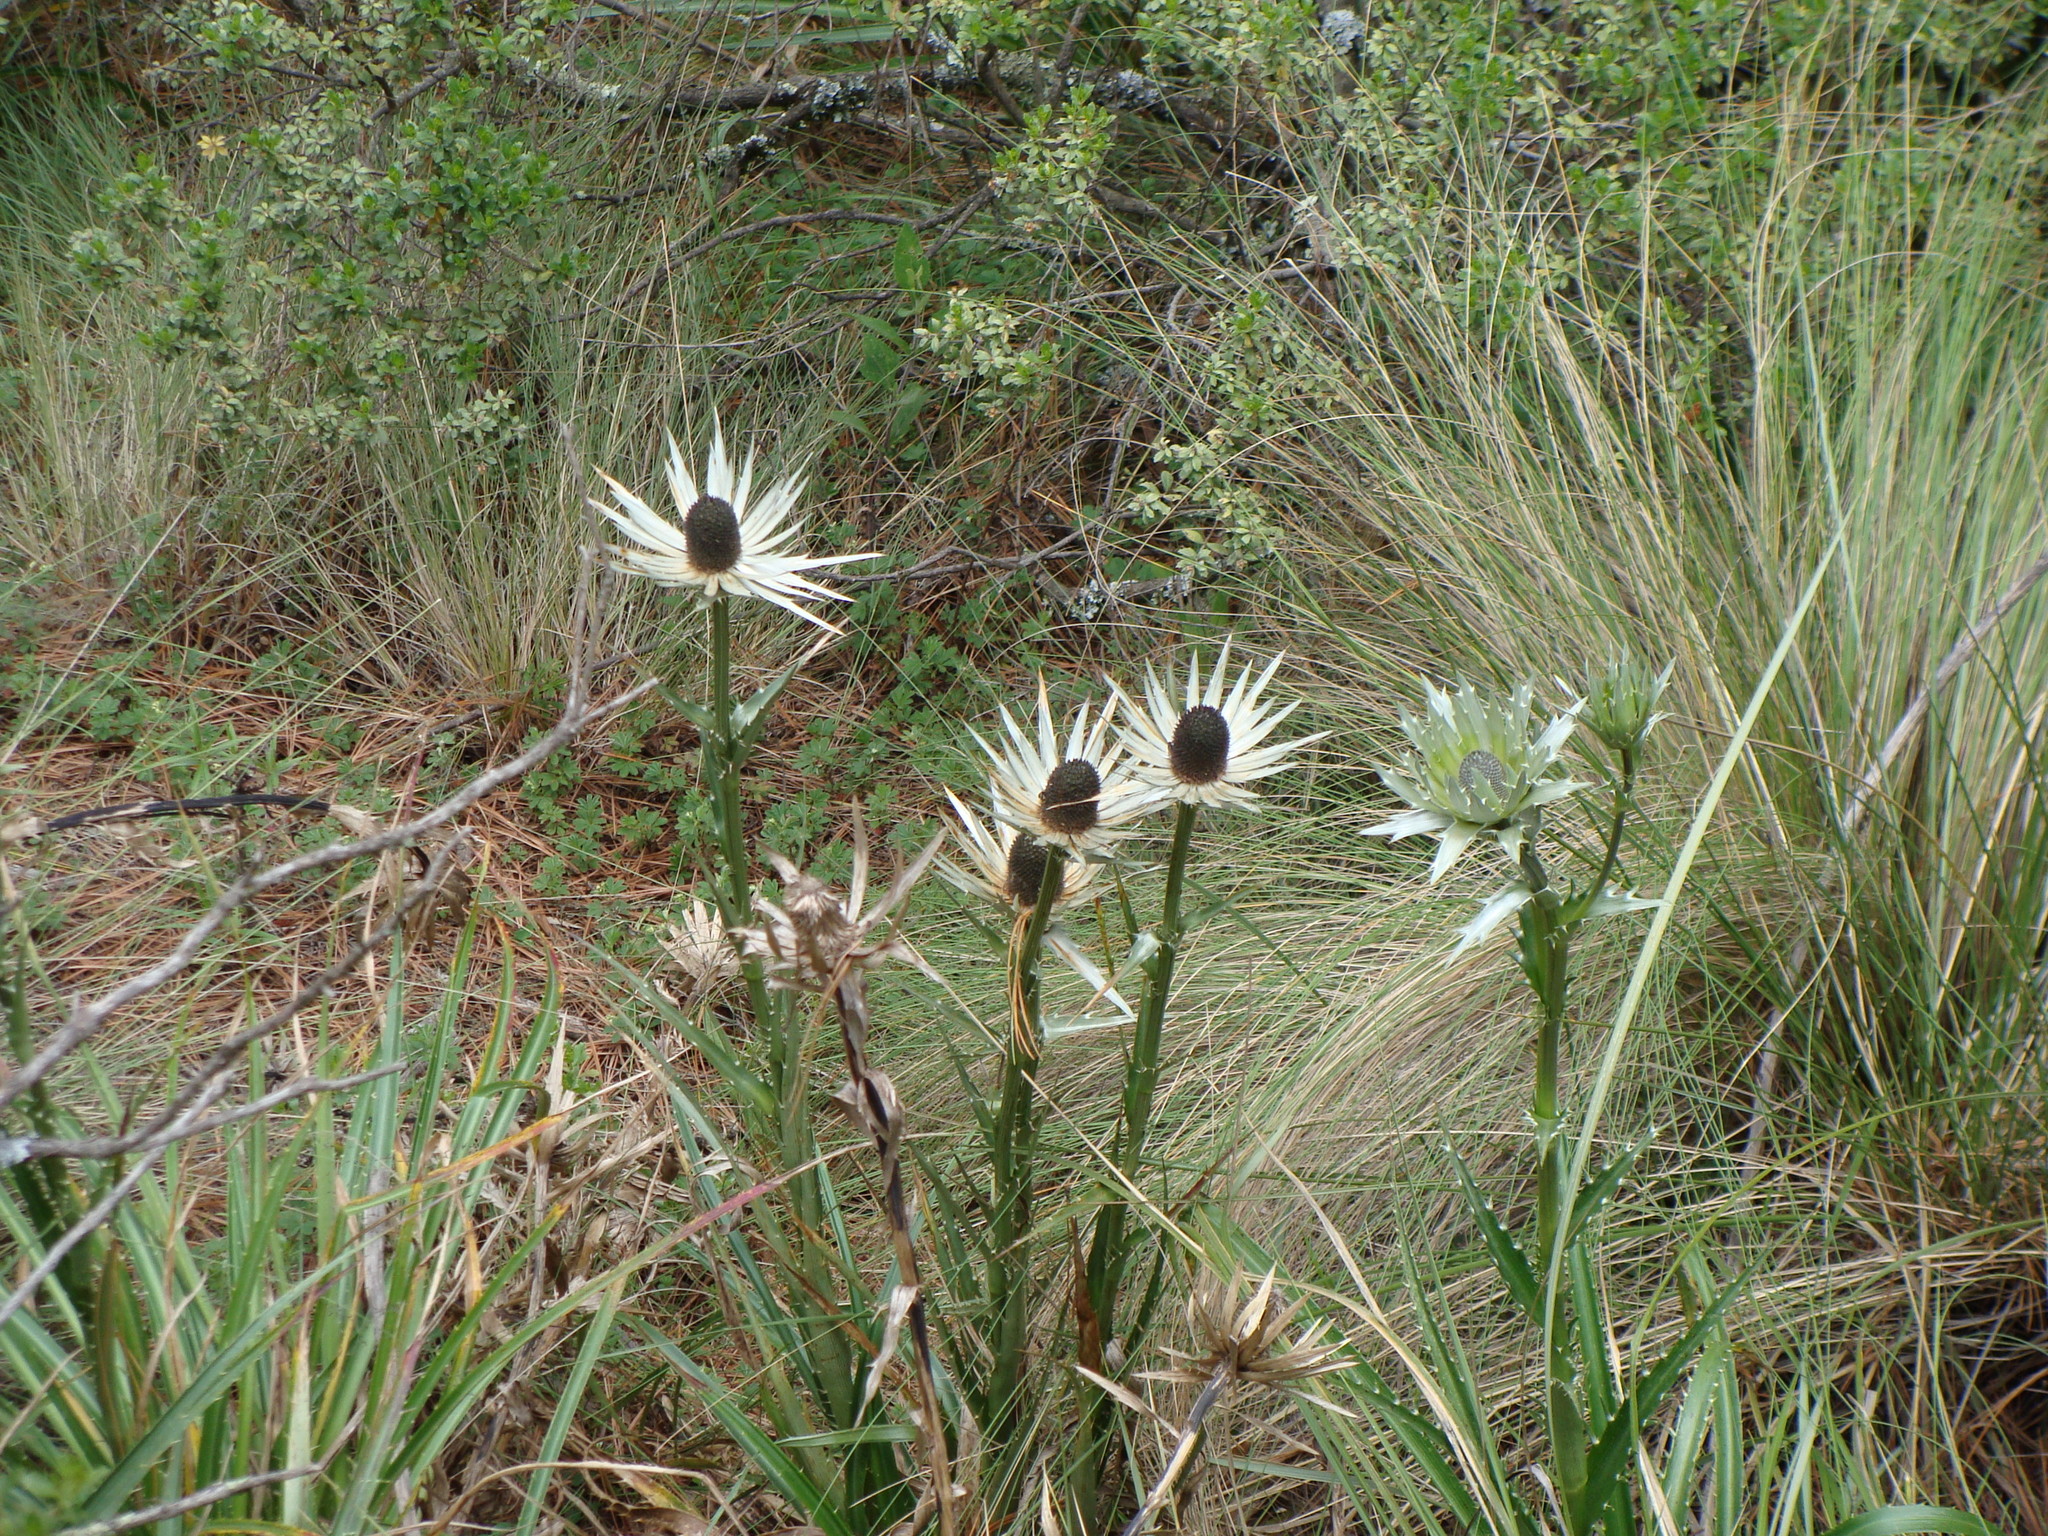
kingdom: Plantae
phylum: Tracheophyta
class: Magnoliopsida
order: Apiales
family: Apiaceae
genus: Eryngium
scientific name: Eryngium proteiflorum
